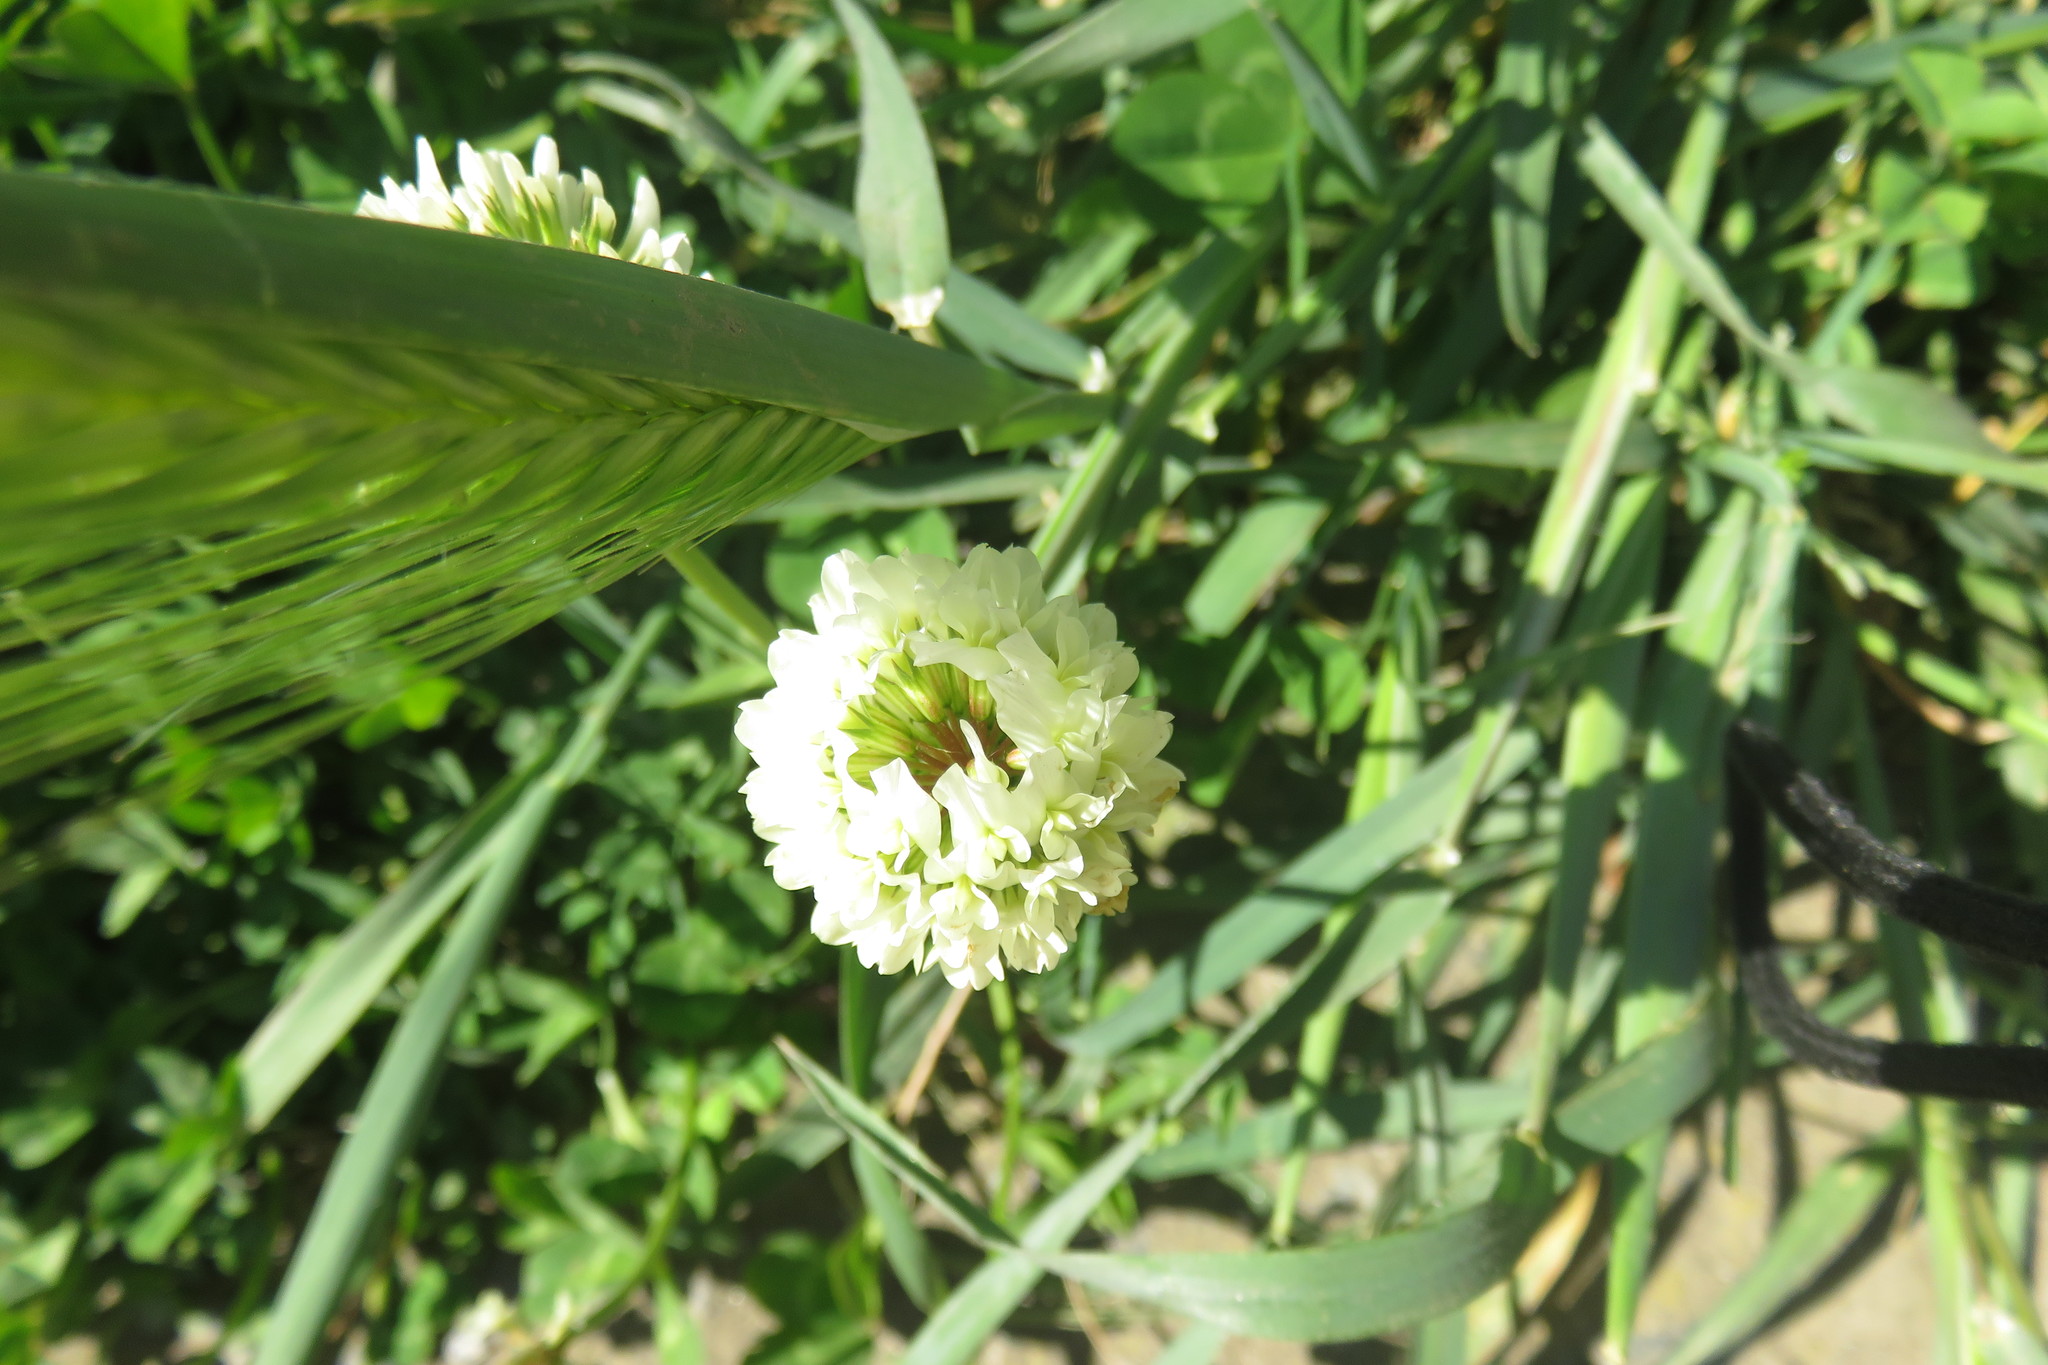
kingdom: Plantae
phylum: Tracheophyta
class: Magnoliopsida
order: Fabales
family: Fabaceae
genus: Trifolium
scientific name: Trifolium repens
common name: White clover
